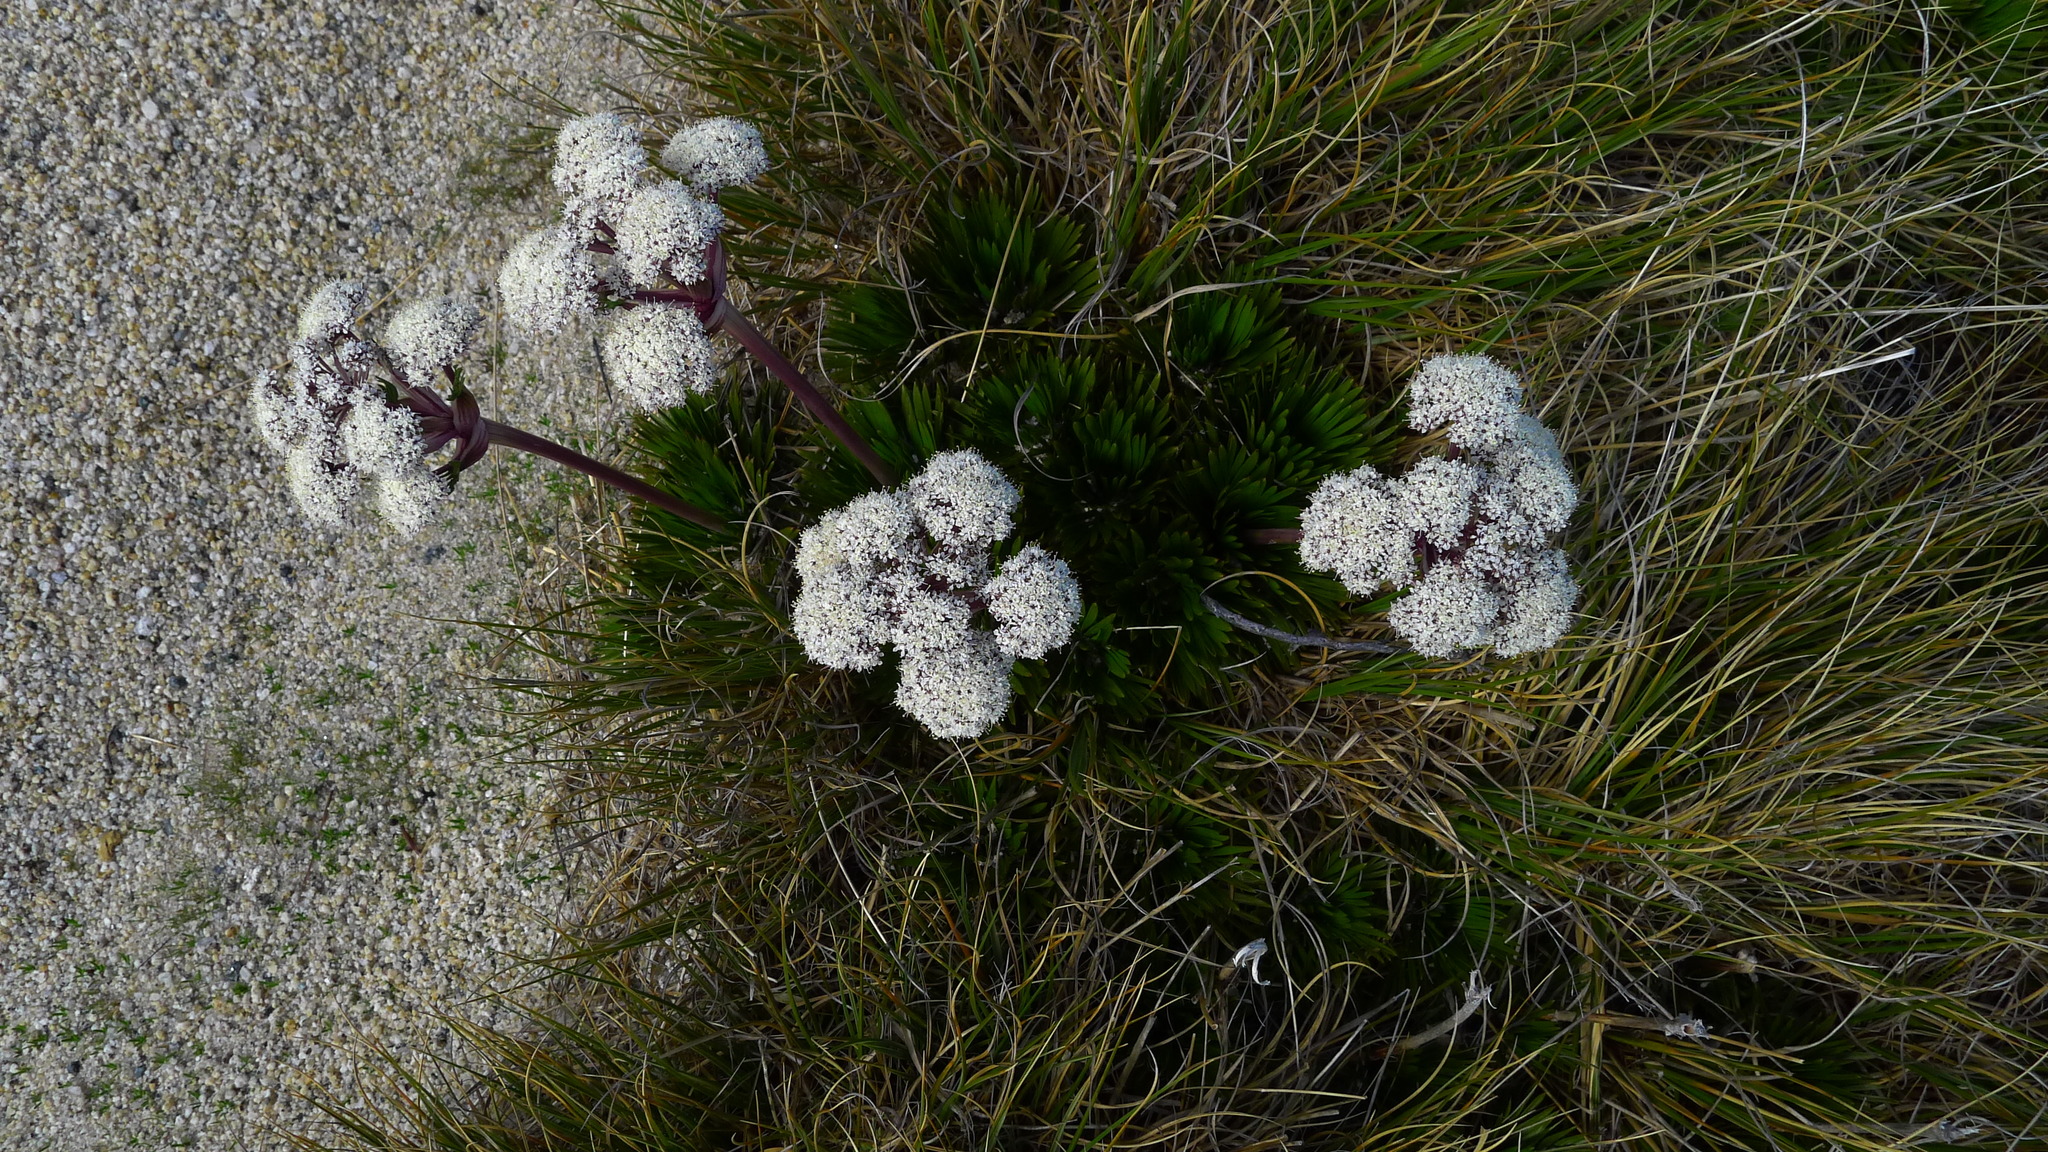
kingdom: Plantae
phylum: Tracheophyta
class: Magnoliopsida
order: Apiales
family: Apiaceae
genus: Aciphylla
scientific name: Aciphylla congesta
